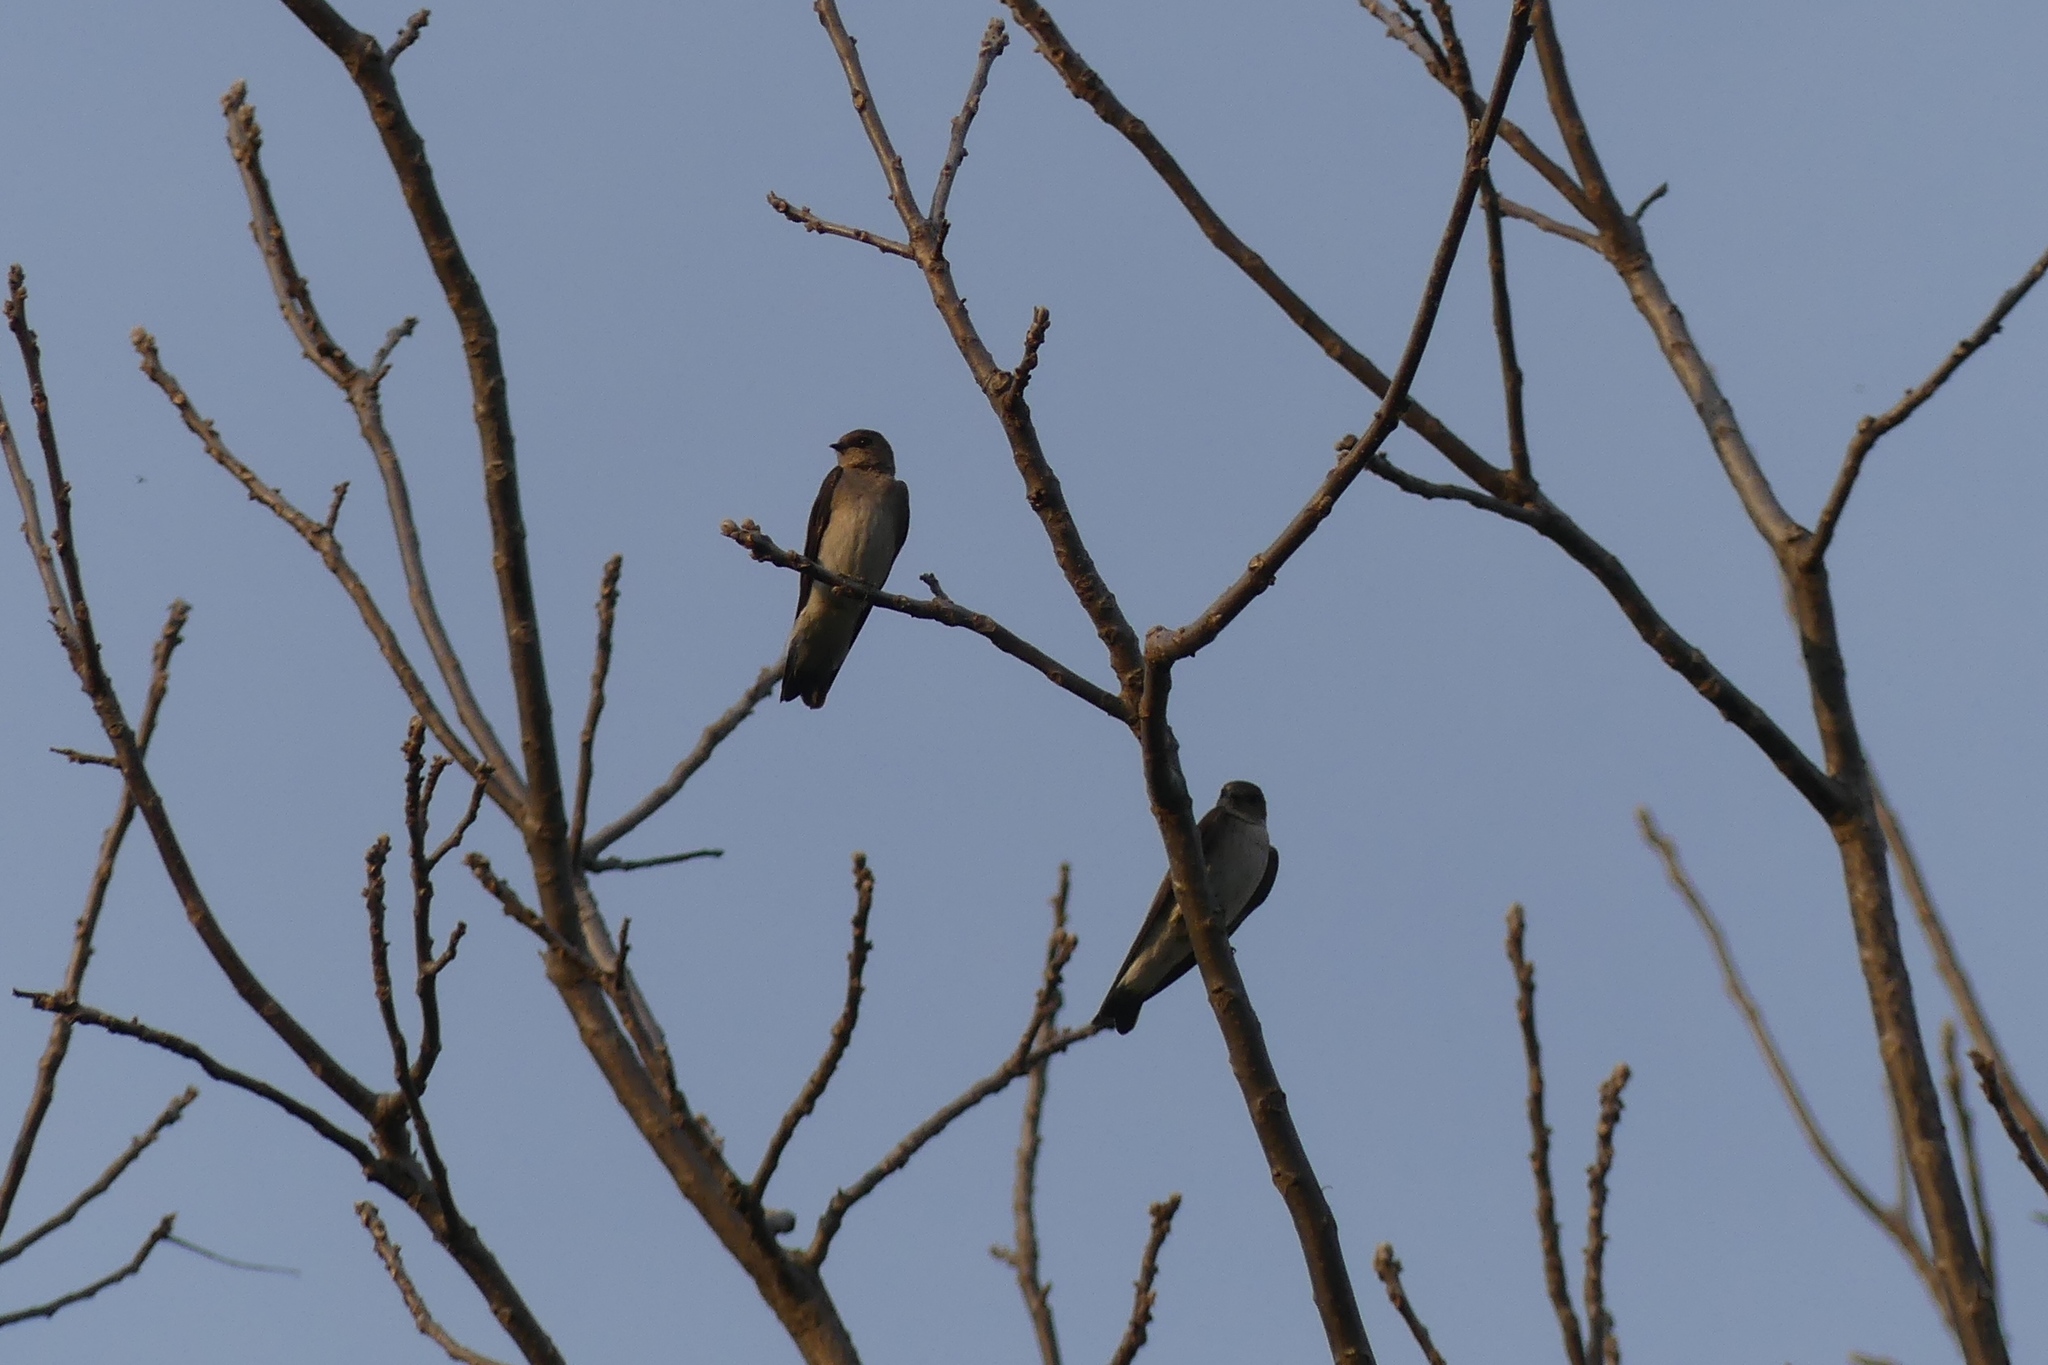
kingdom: Animalia
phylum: Chordata
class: Aves
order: Passeriformes
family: Hirundinidae
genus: Stelgidopteryx
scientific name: Stelgidopteryx serripennis
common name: Northern rough-winged swallow
